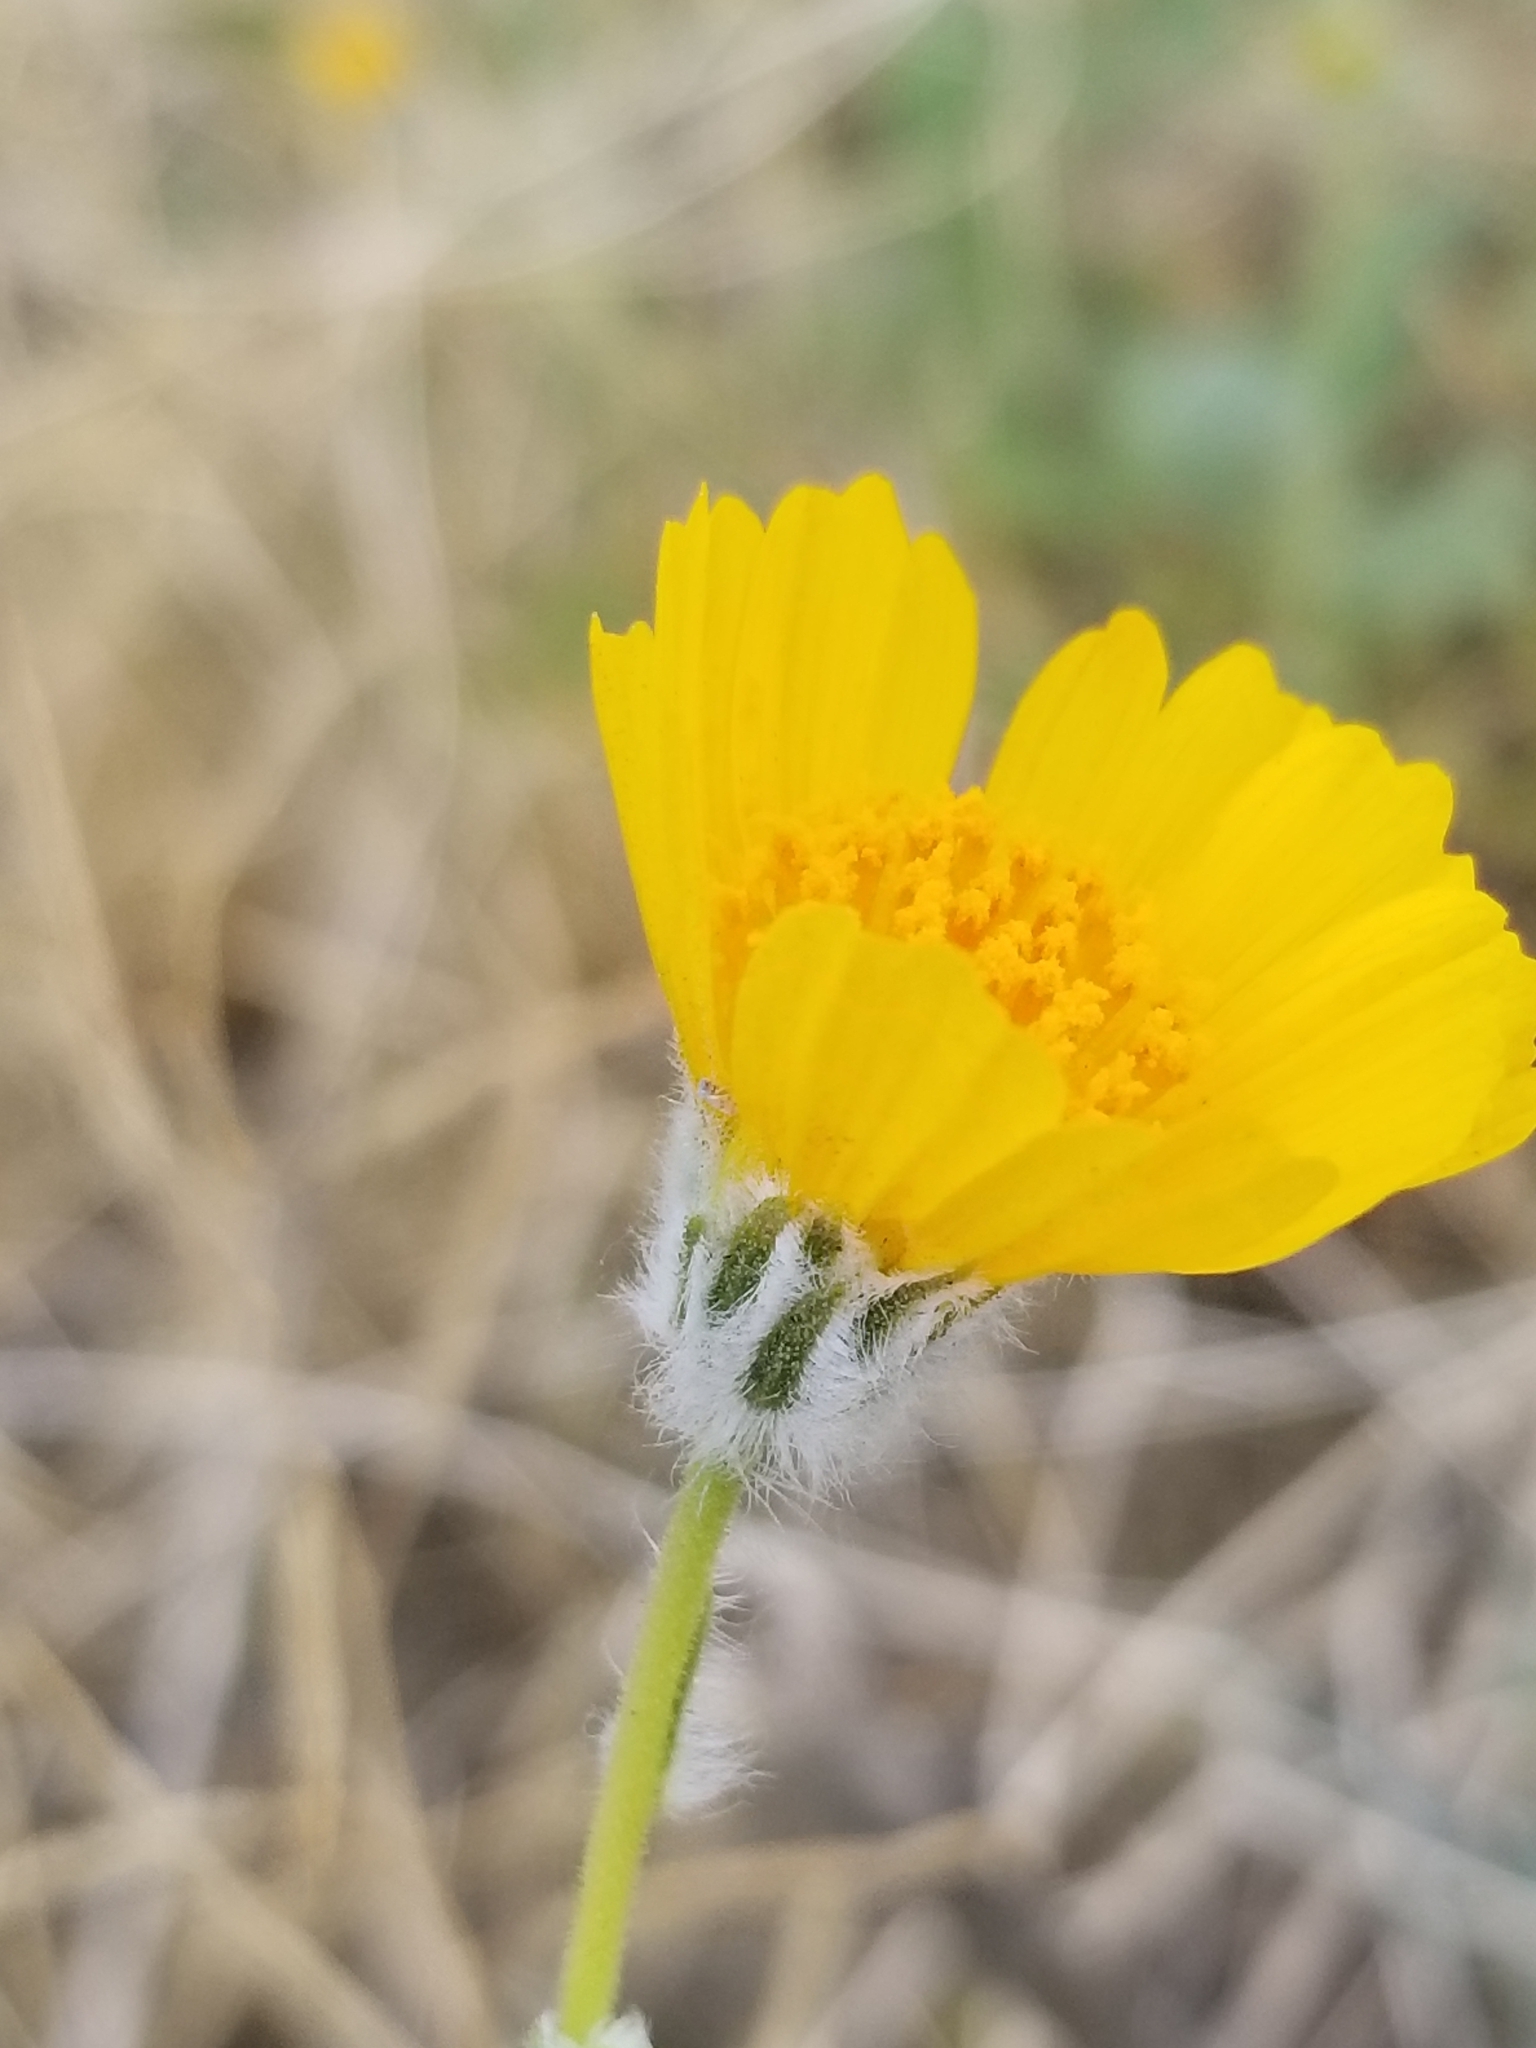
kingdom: Plantae
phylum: Tracheophyta
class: Magnoliopsida
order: Asterales
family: Asteraceae
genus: Geraea
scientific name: Geraea canescens
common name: Desert-gold
